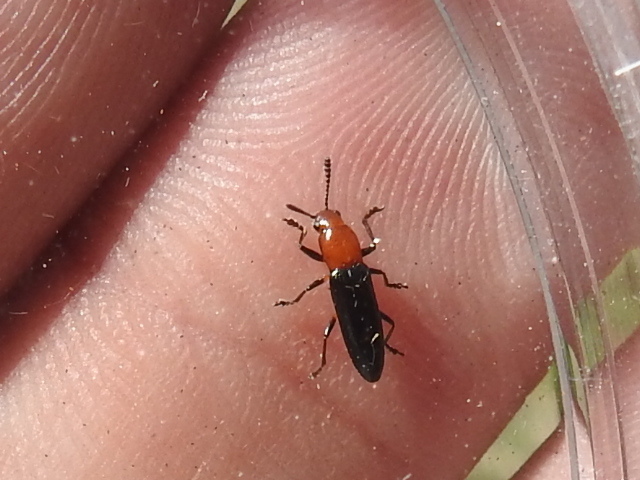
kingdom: Animalia
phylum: Arthropoda
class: Insecta
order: Coleoptera
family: Erotylidae
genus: Languria
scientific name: Languria mozardi
